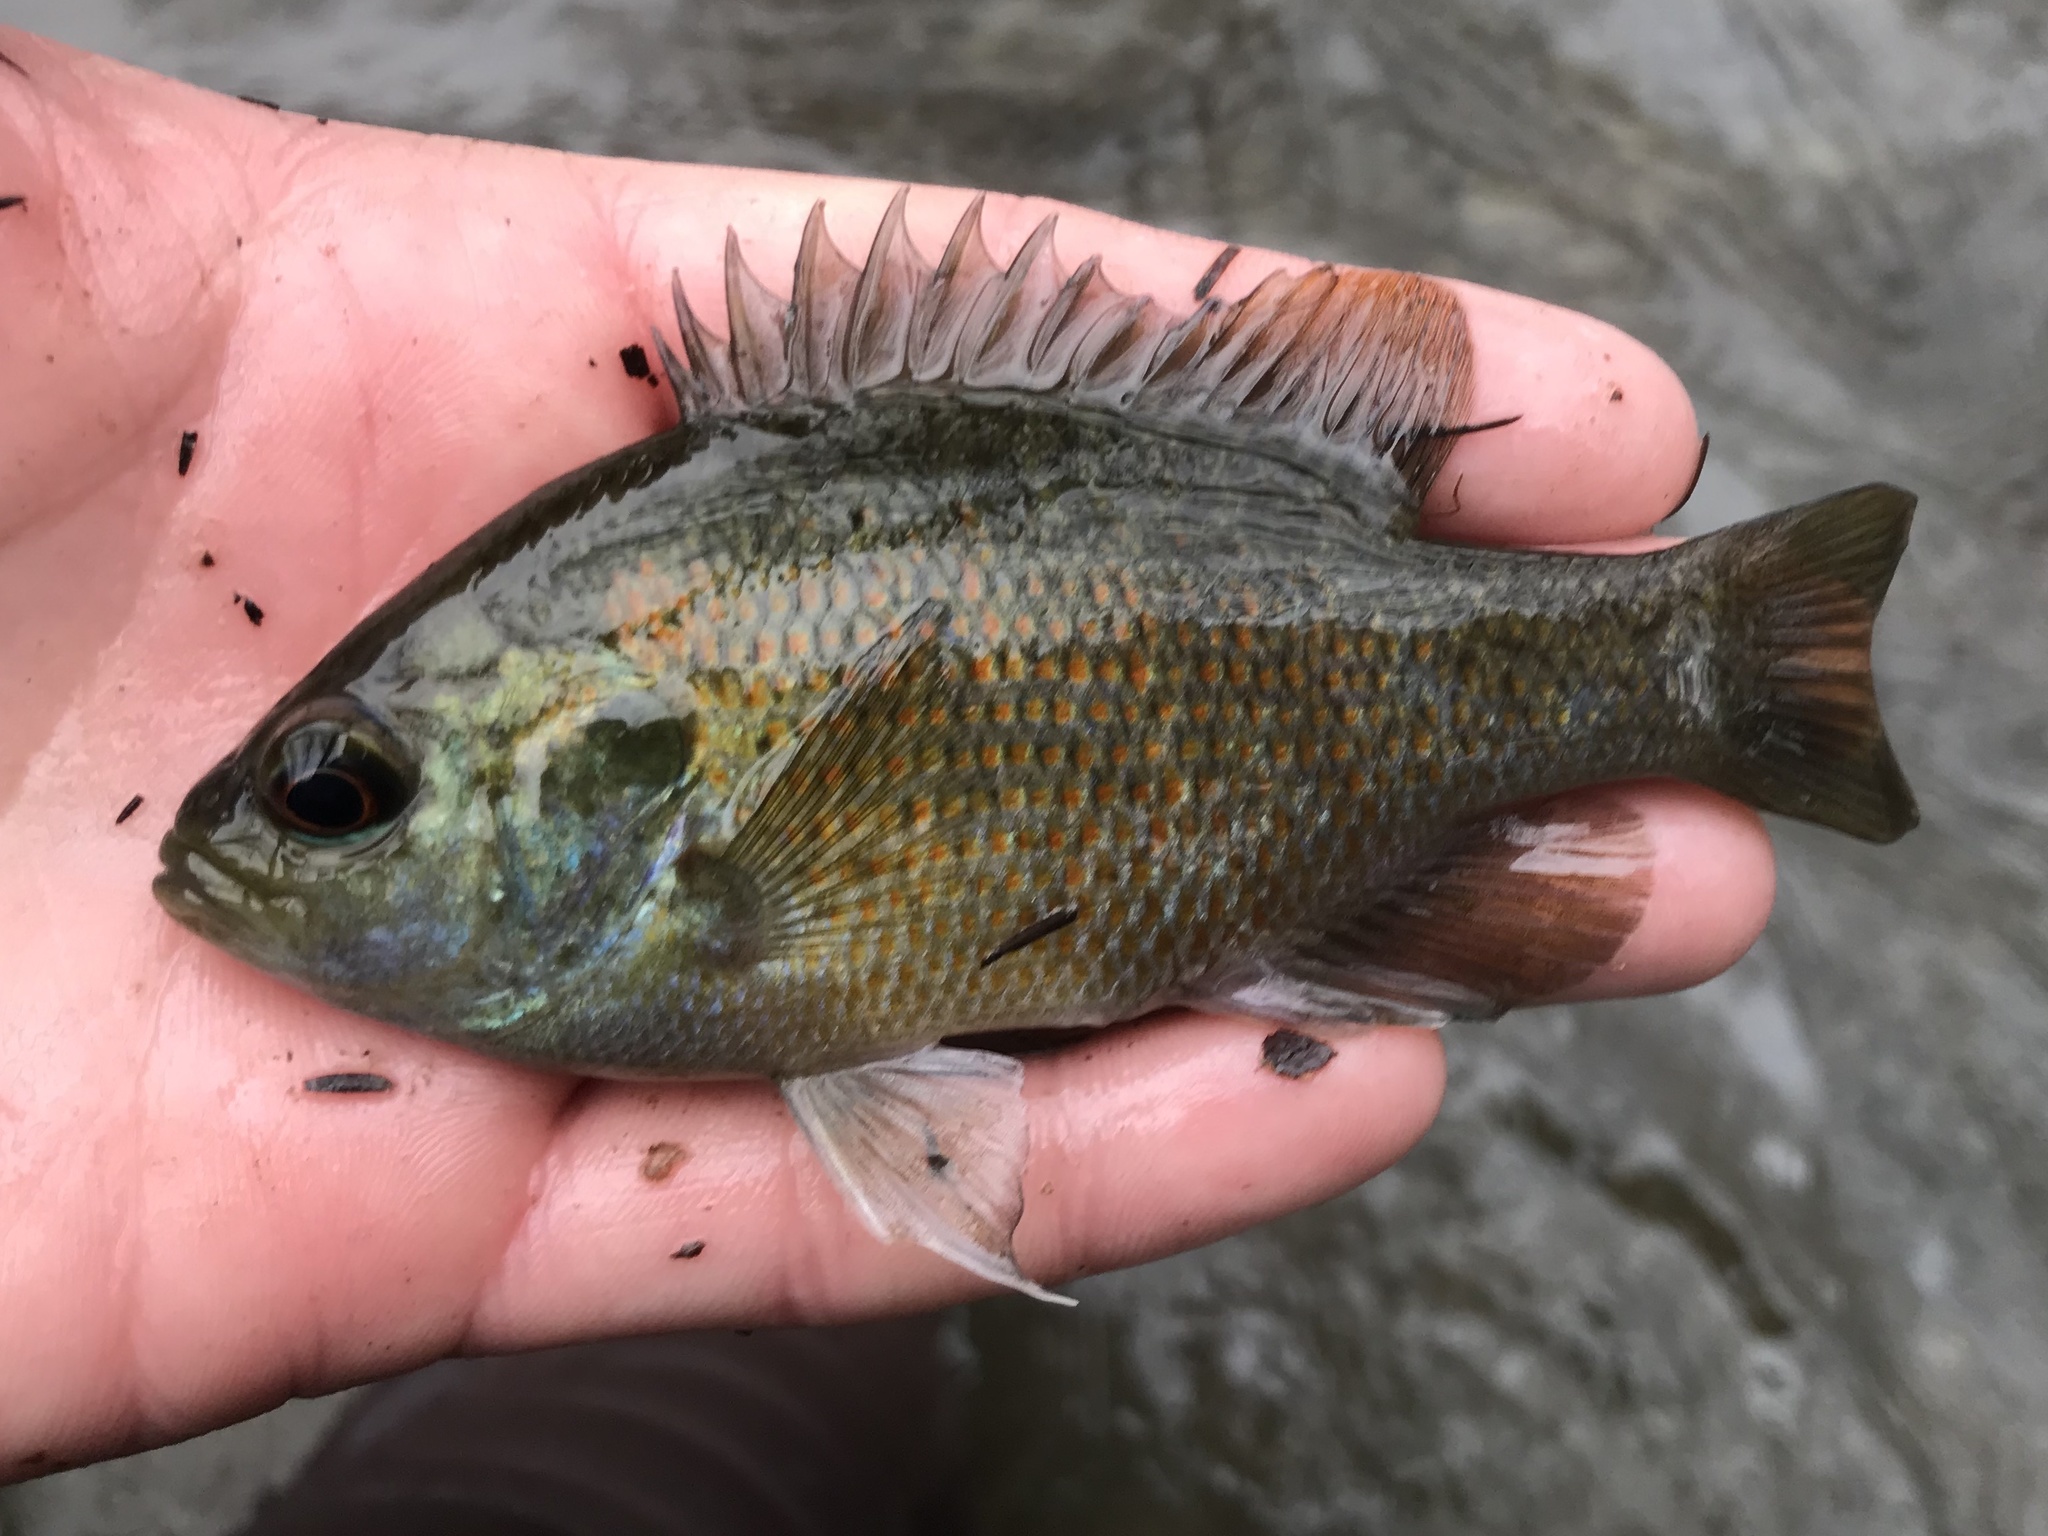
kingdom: Animalia
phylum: Chordata
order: Perciformes
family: Centrarchidae
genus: Lepomis
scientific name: Lepomis miniatus
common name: Redspotted sunfish
